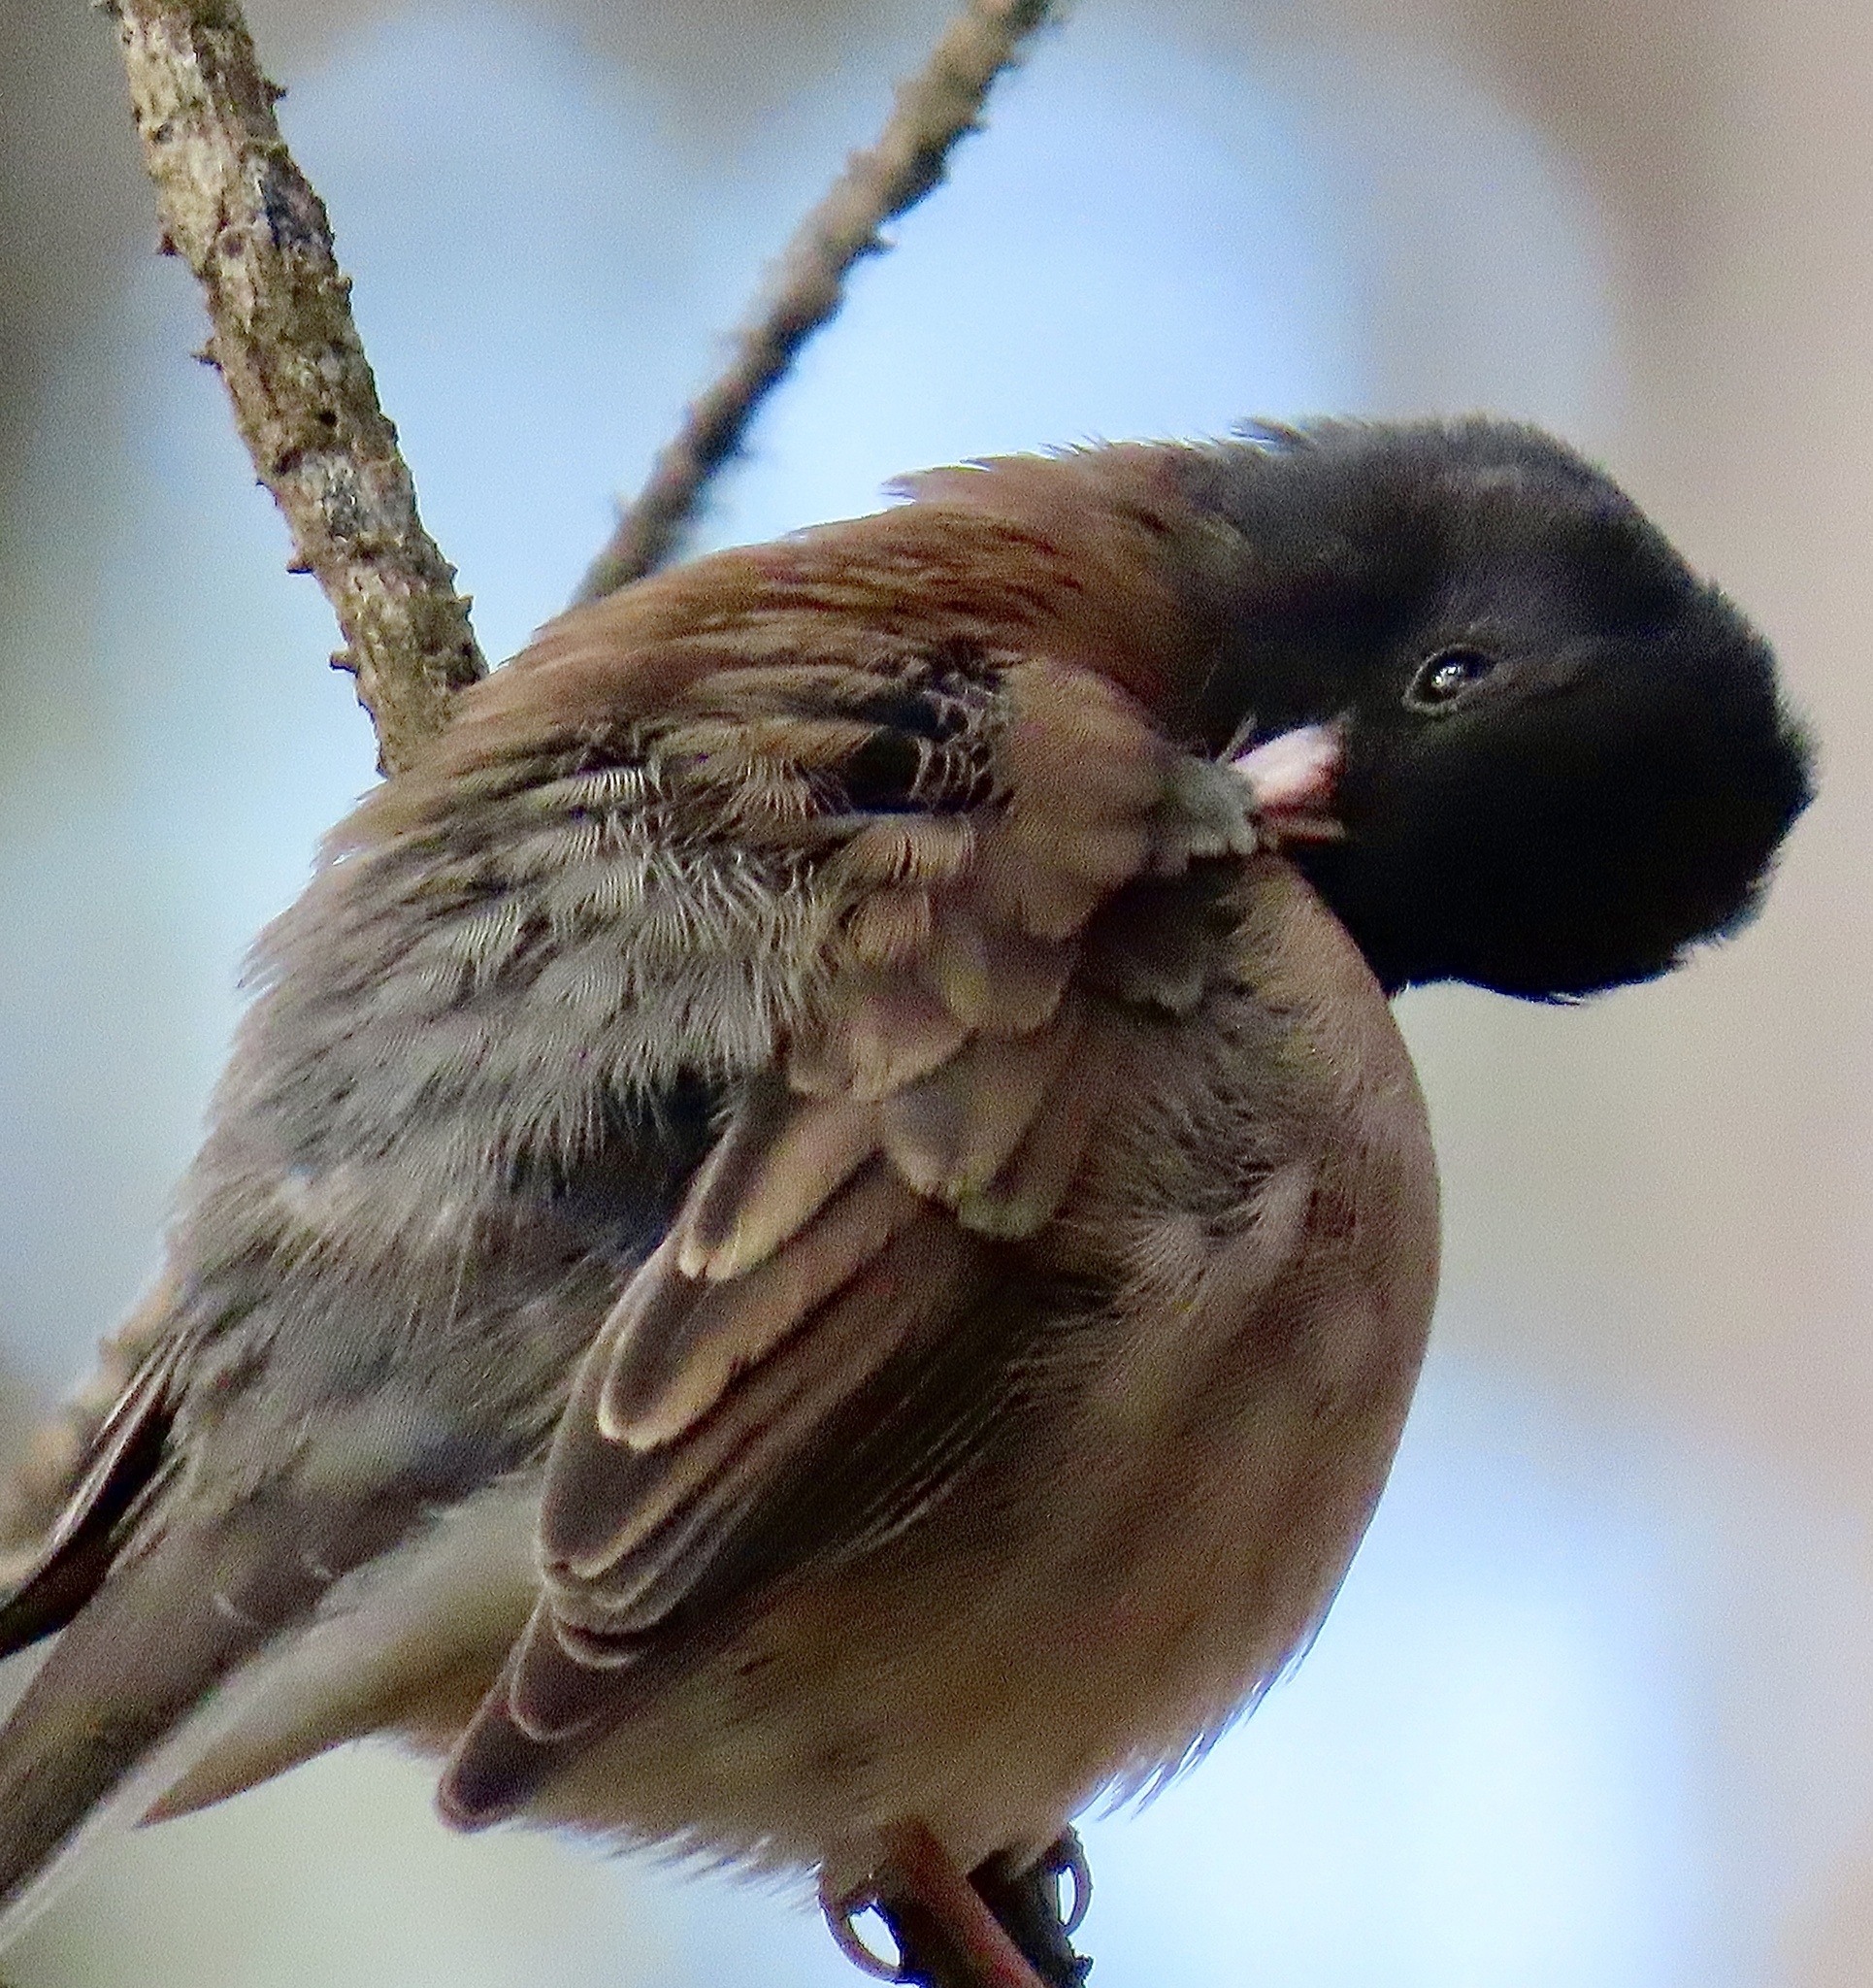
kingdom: Animalia
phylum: Chordata
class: Aves
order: Passeriformes
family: Passerellidae
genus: Junco
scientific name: Junco hyemalis
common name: Dark-eyed junco
